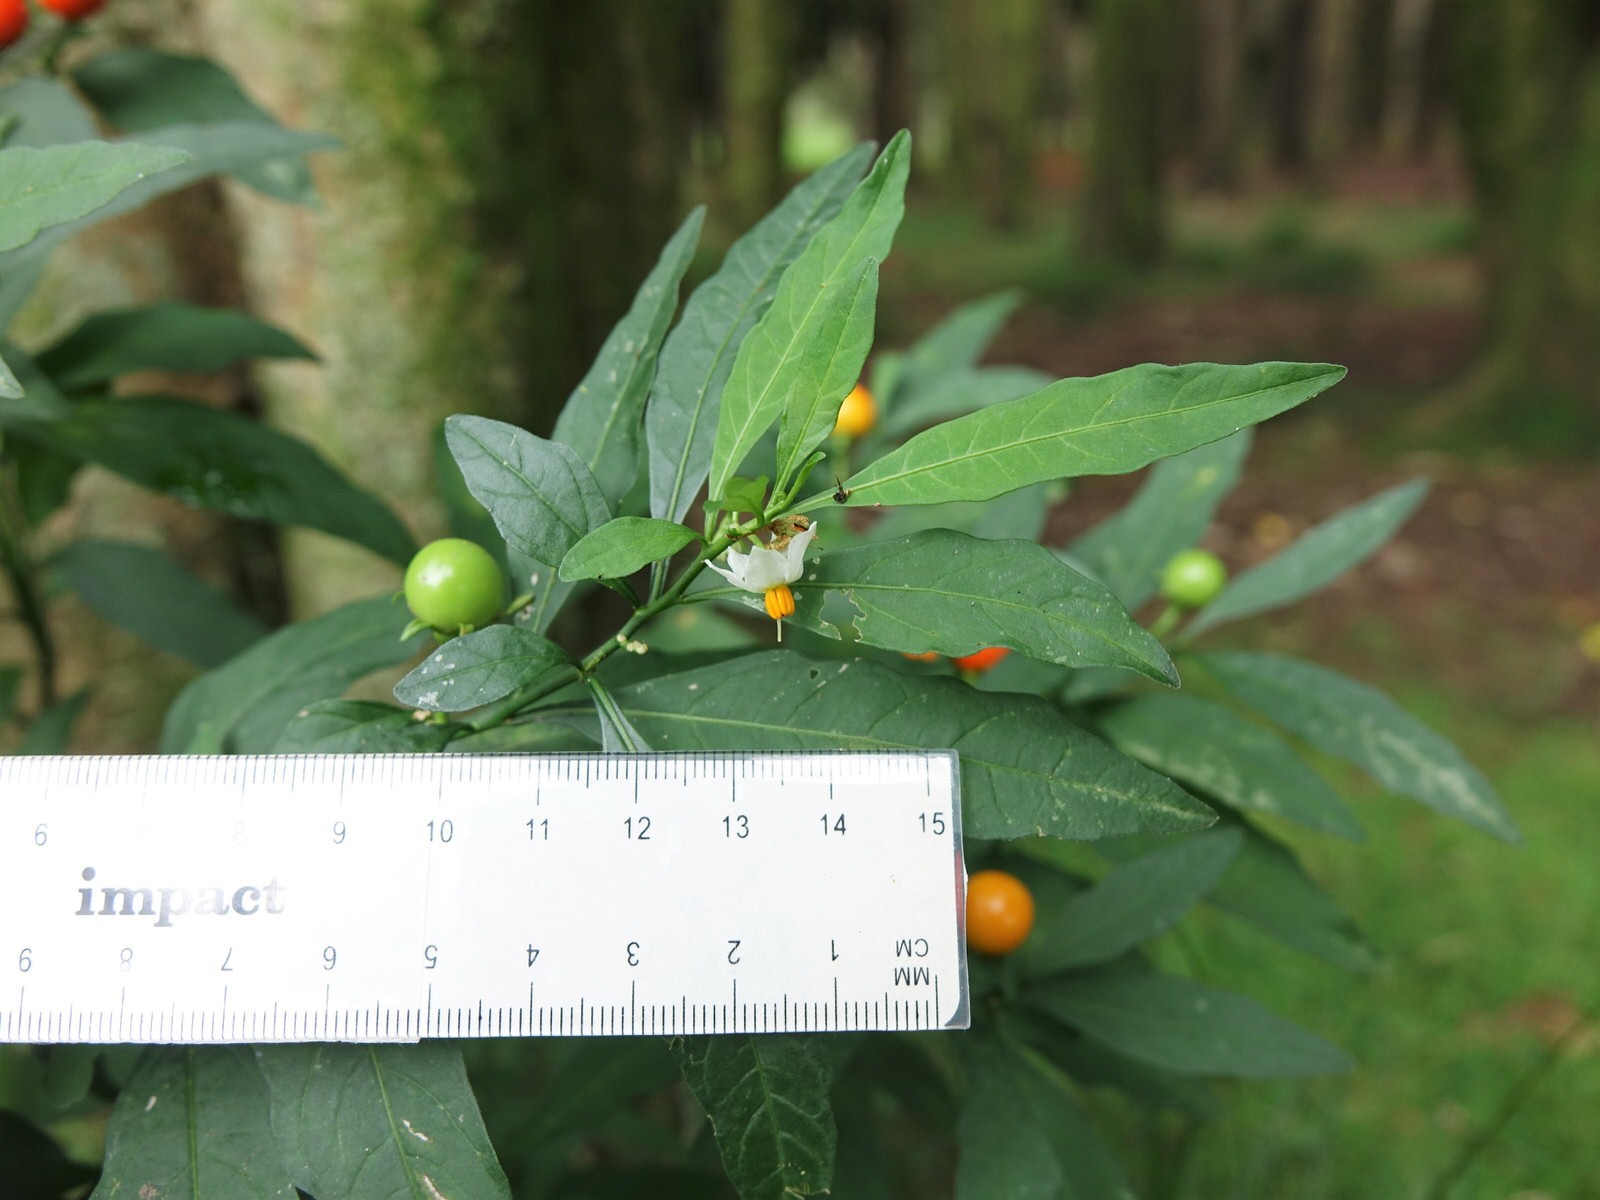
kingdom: Plantae
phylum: Tracheophyta
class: Magnoliopsida
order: Solanales
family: Solanaceae
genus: Solanum
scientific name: Solanum pseudocapsicum
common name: Jerusalem cherry
